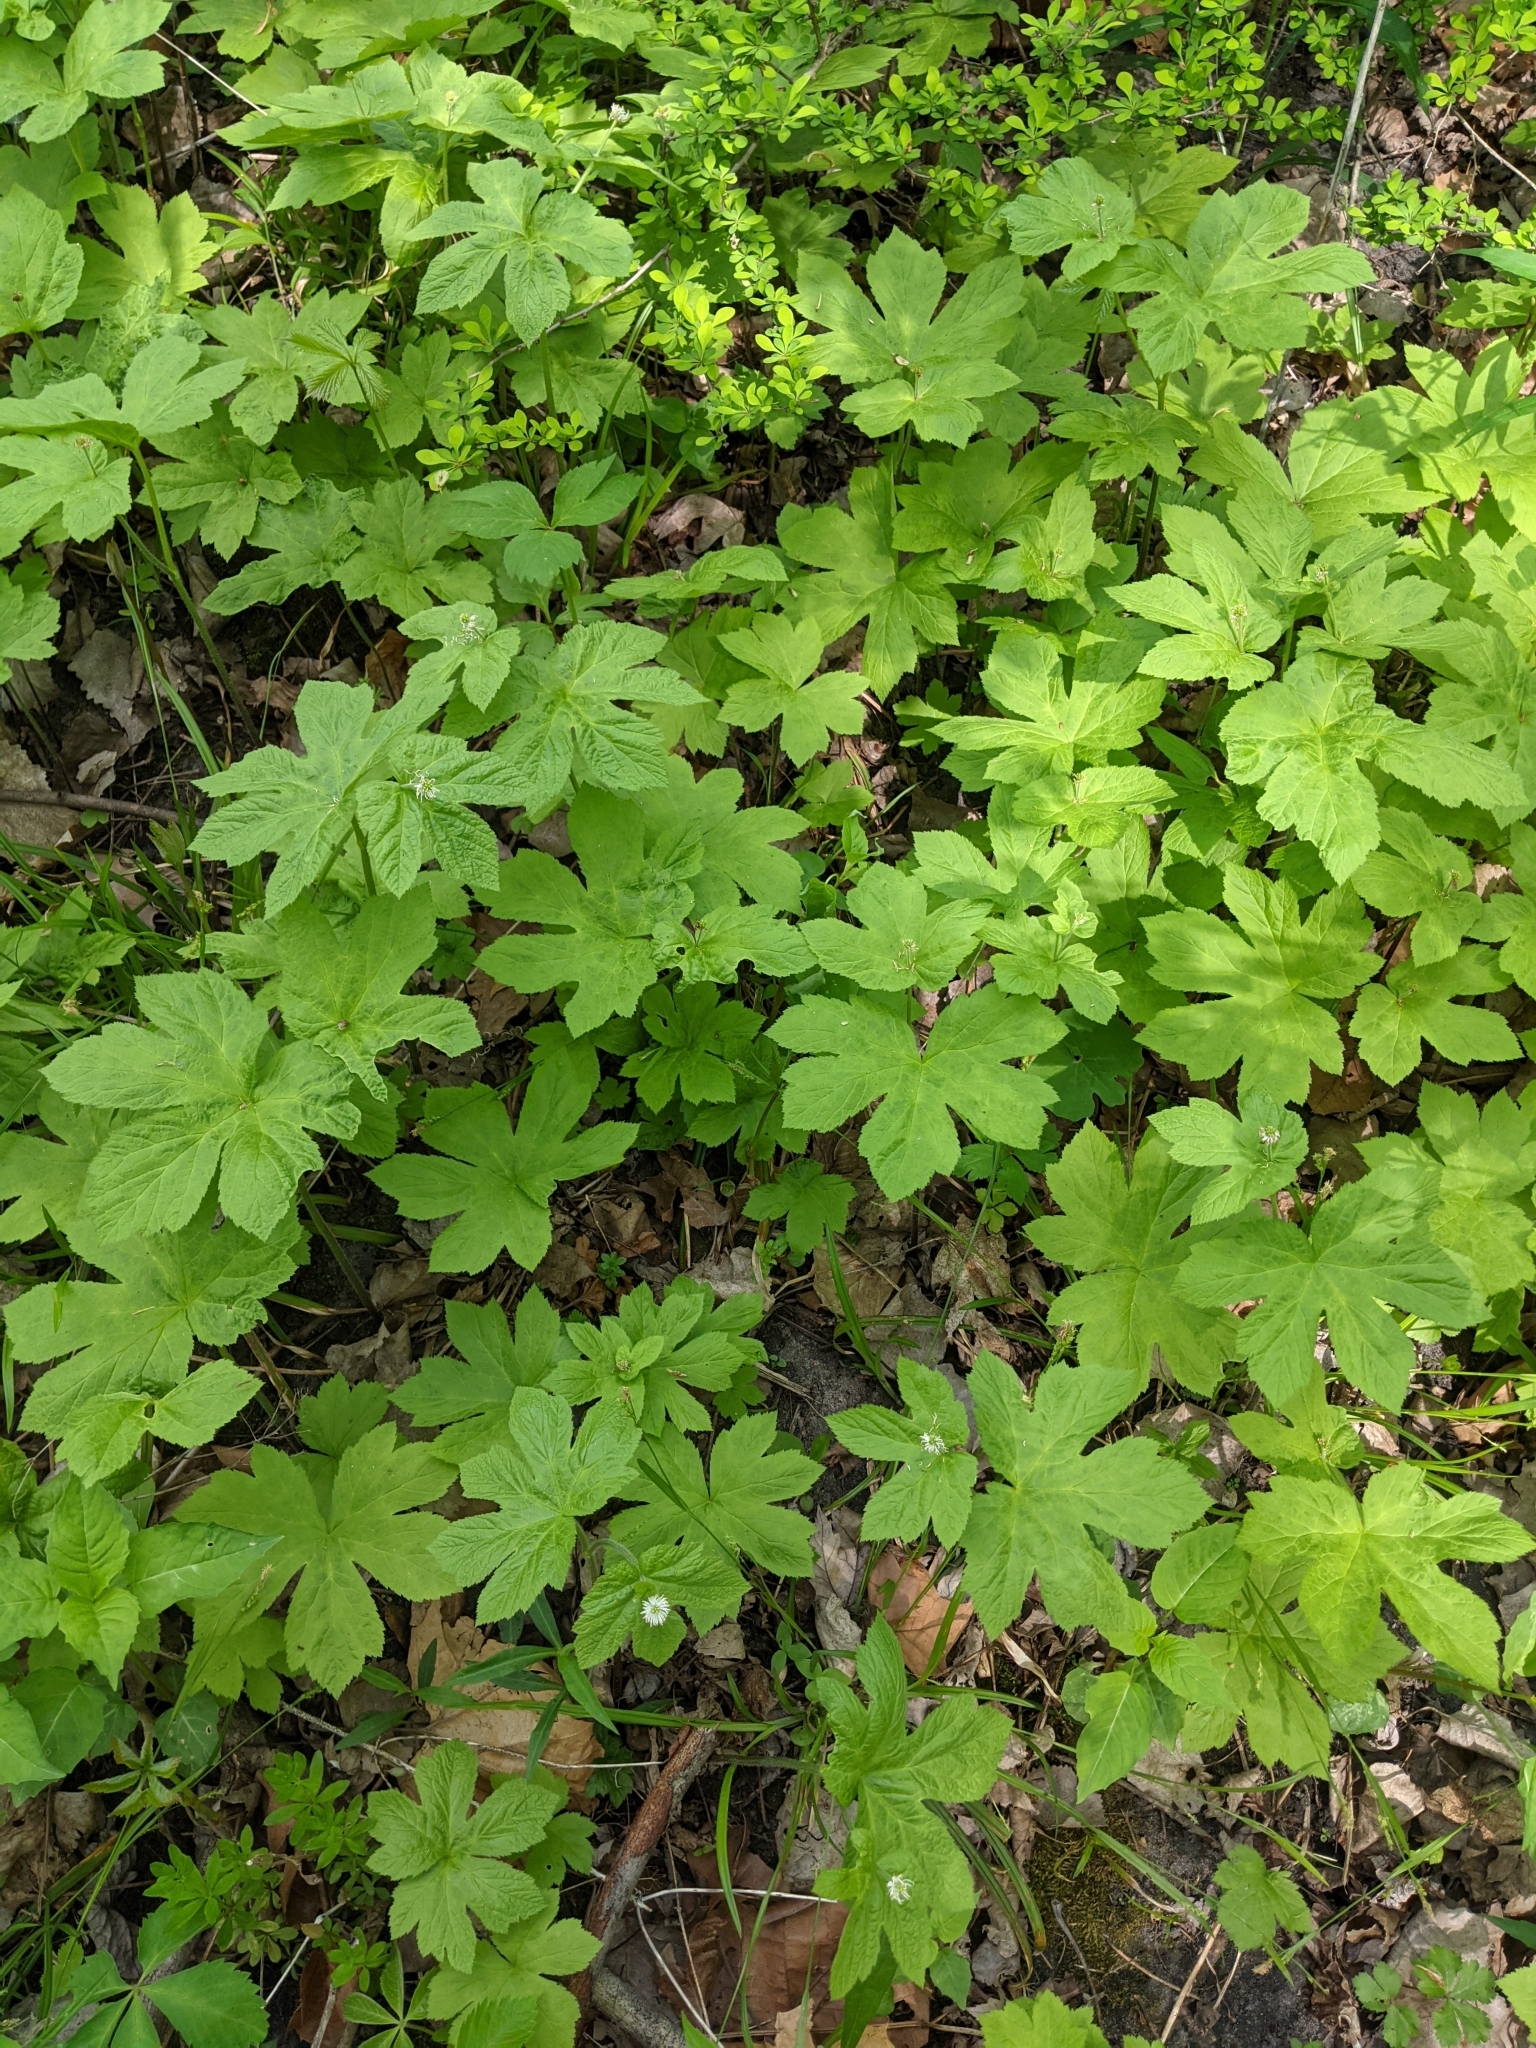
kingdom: Plantae
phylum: Tracheophyta
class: Magnoliopsida
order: Ranunculales
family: Ranunculaceae
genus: Hydrastis
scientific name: Hydrastis canadensis
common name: Goldenseal
